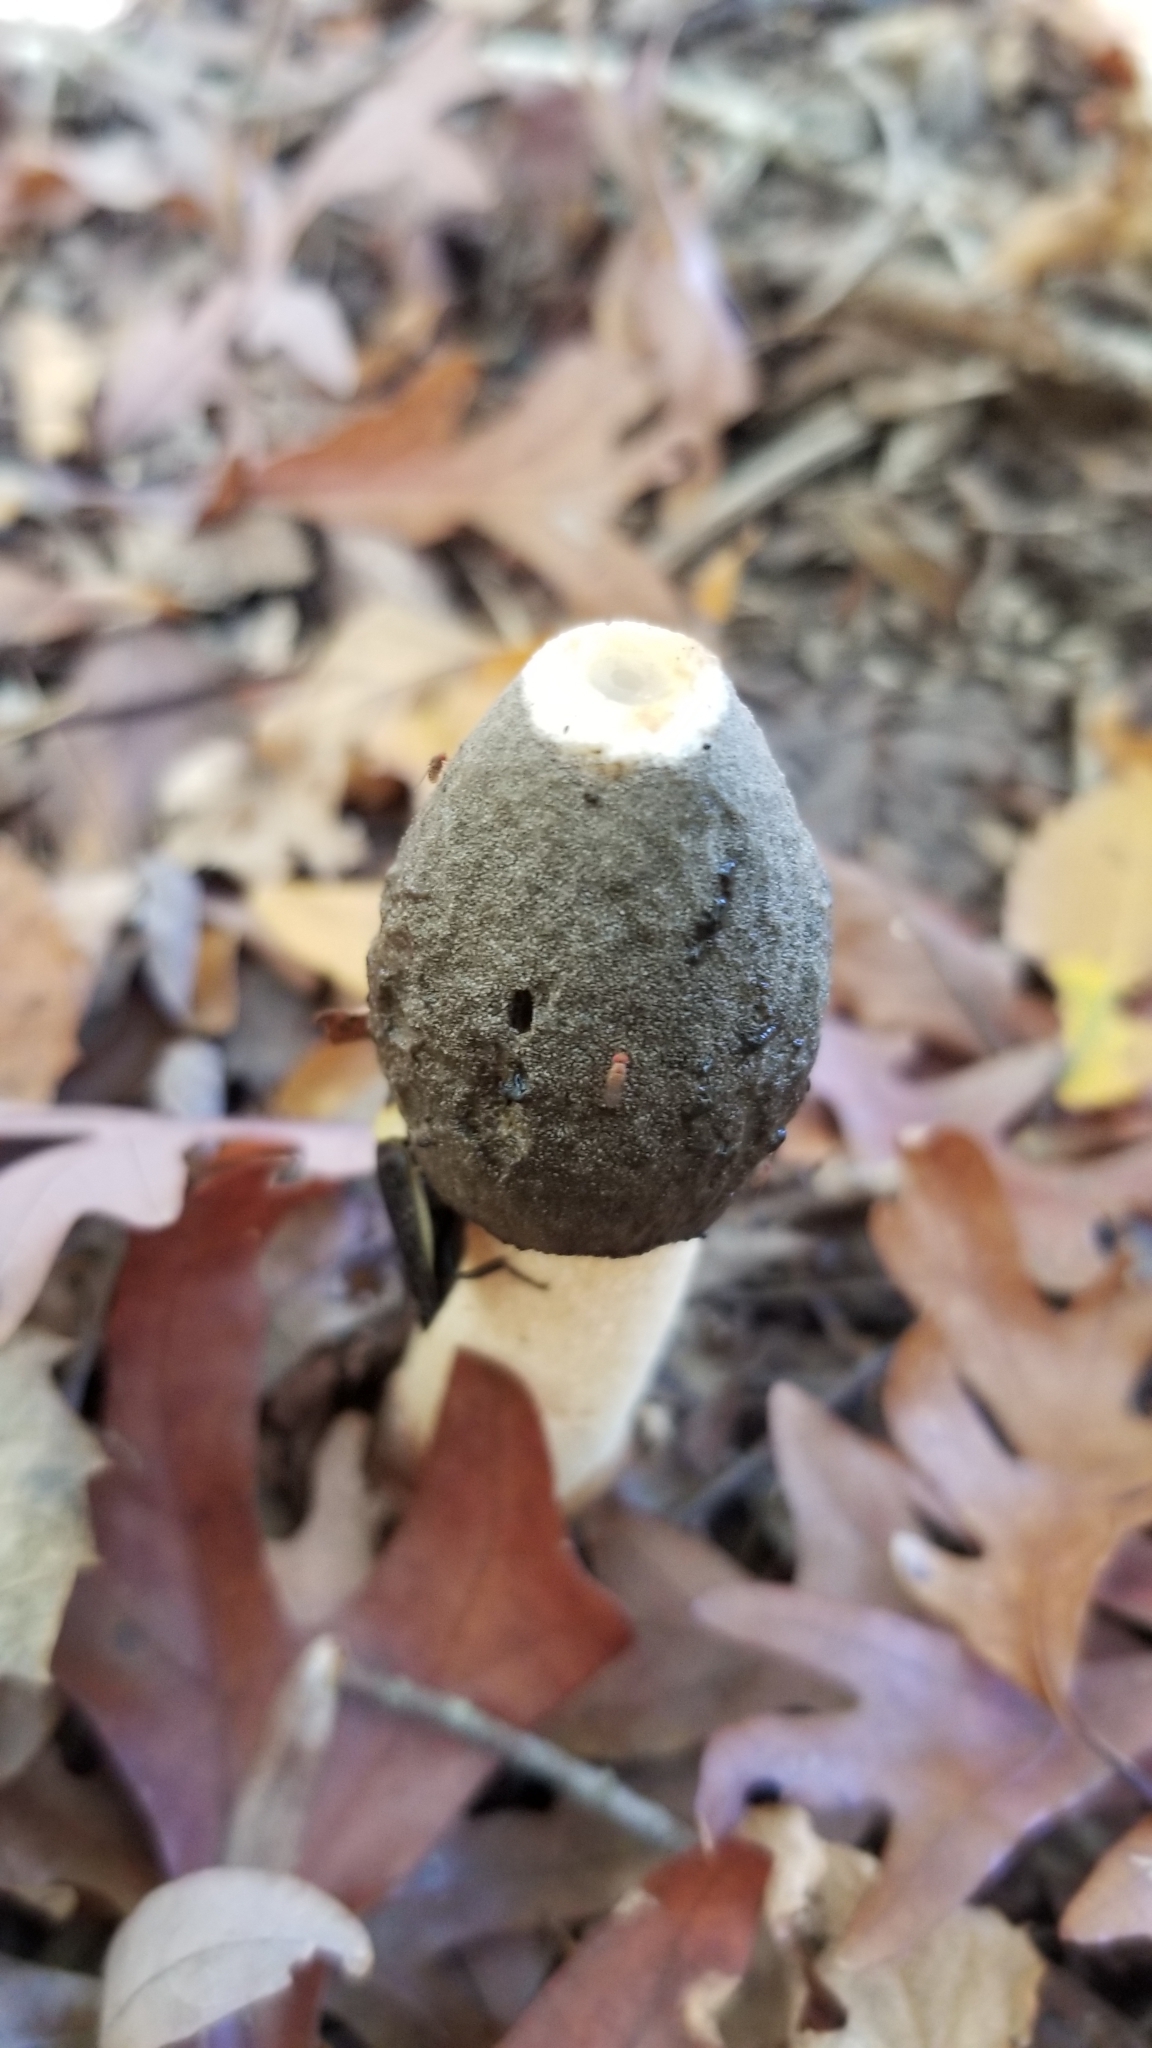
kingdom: Fungi
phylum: Basidiomycota
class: Agaricomycetes
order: Phallales
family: Phallaceae
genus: Phallus
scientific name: Phallus ravenelii
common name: Ravenel's stinkhorn
